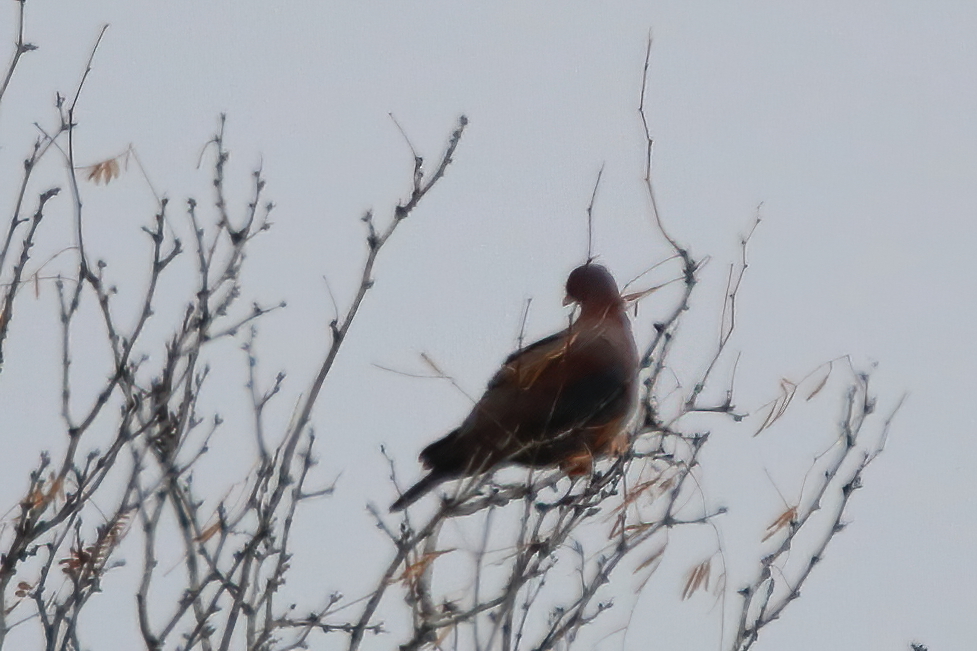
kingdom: Animalia
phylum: Chordata
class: Aves
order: Columbiformes
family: Columbidae
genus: Patagioenas
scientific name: Patagioenas flavirostris
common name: Red-billed pigeon
